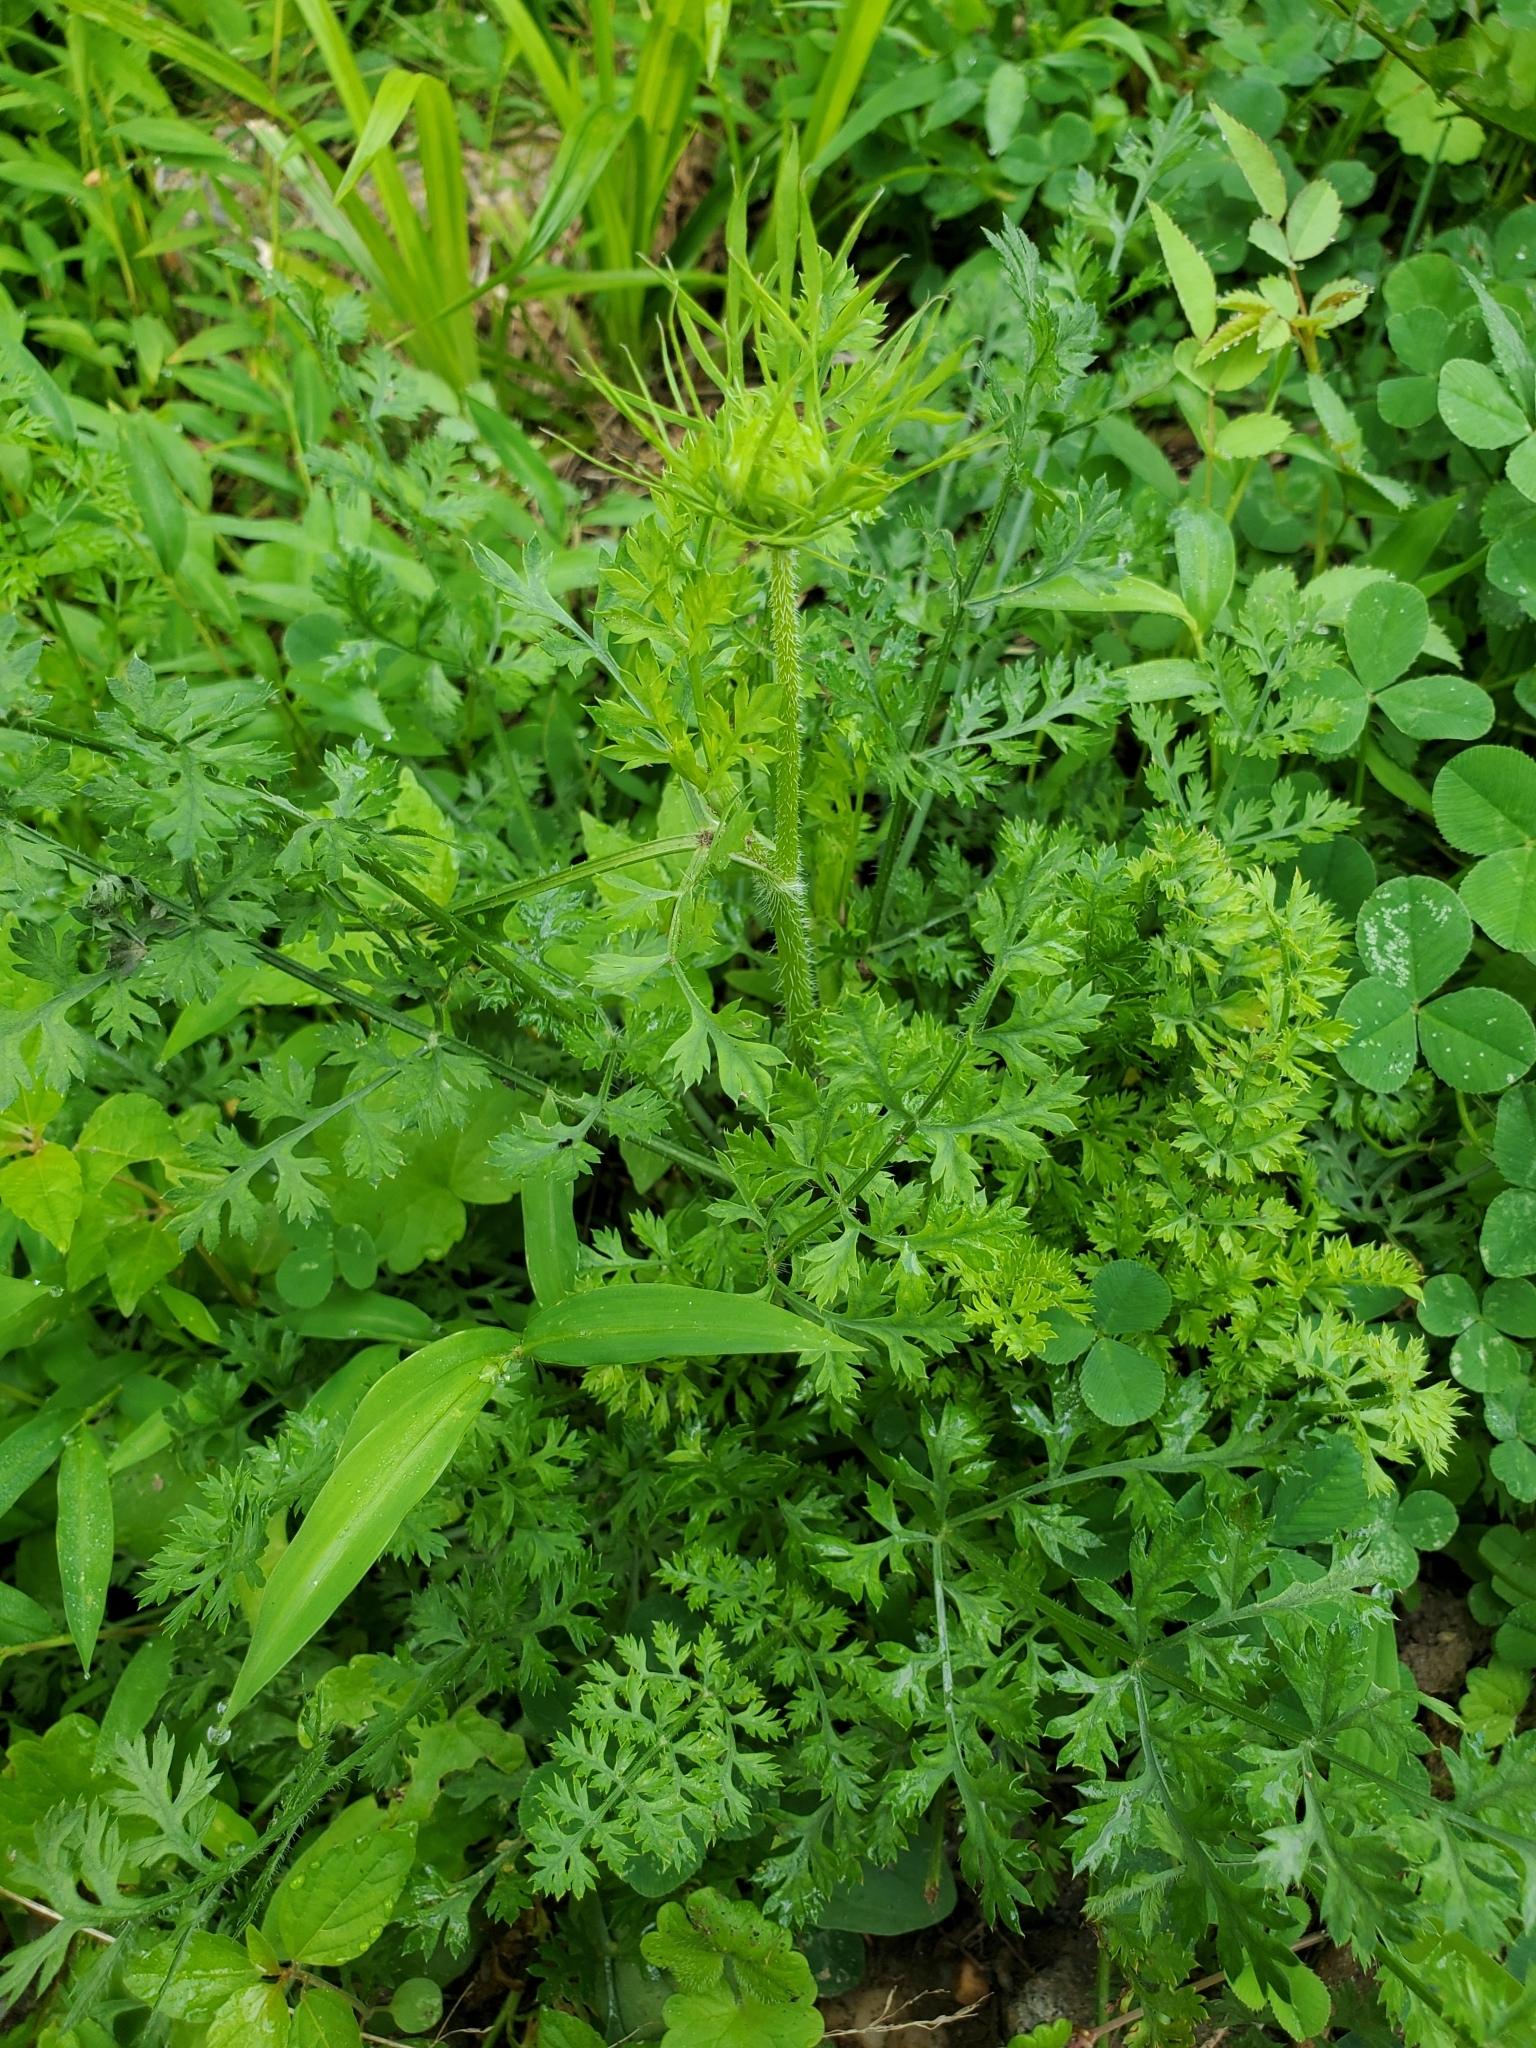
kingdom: Plantae
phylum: Tracheophyta
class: Magnoliopsida
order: Apiales
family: Apiaceae
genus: Daucus
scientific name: Daucus carota
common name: Wild carrot
